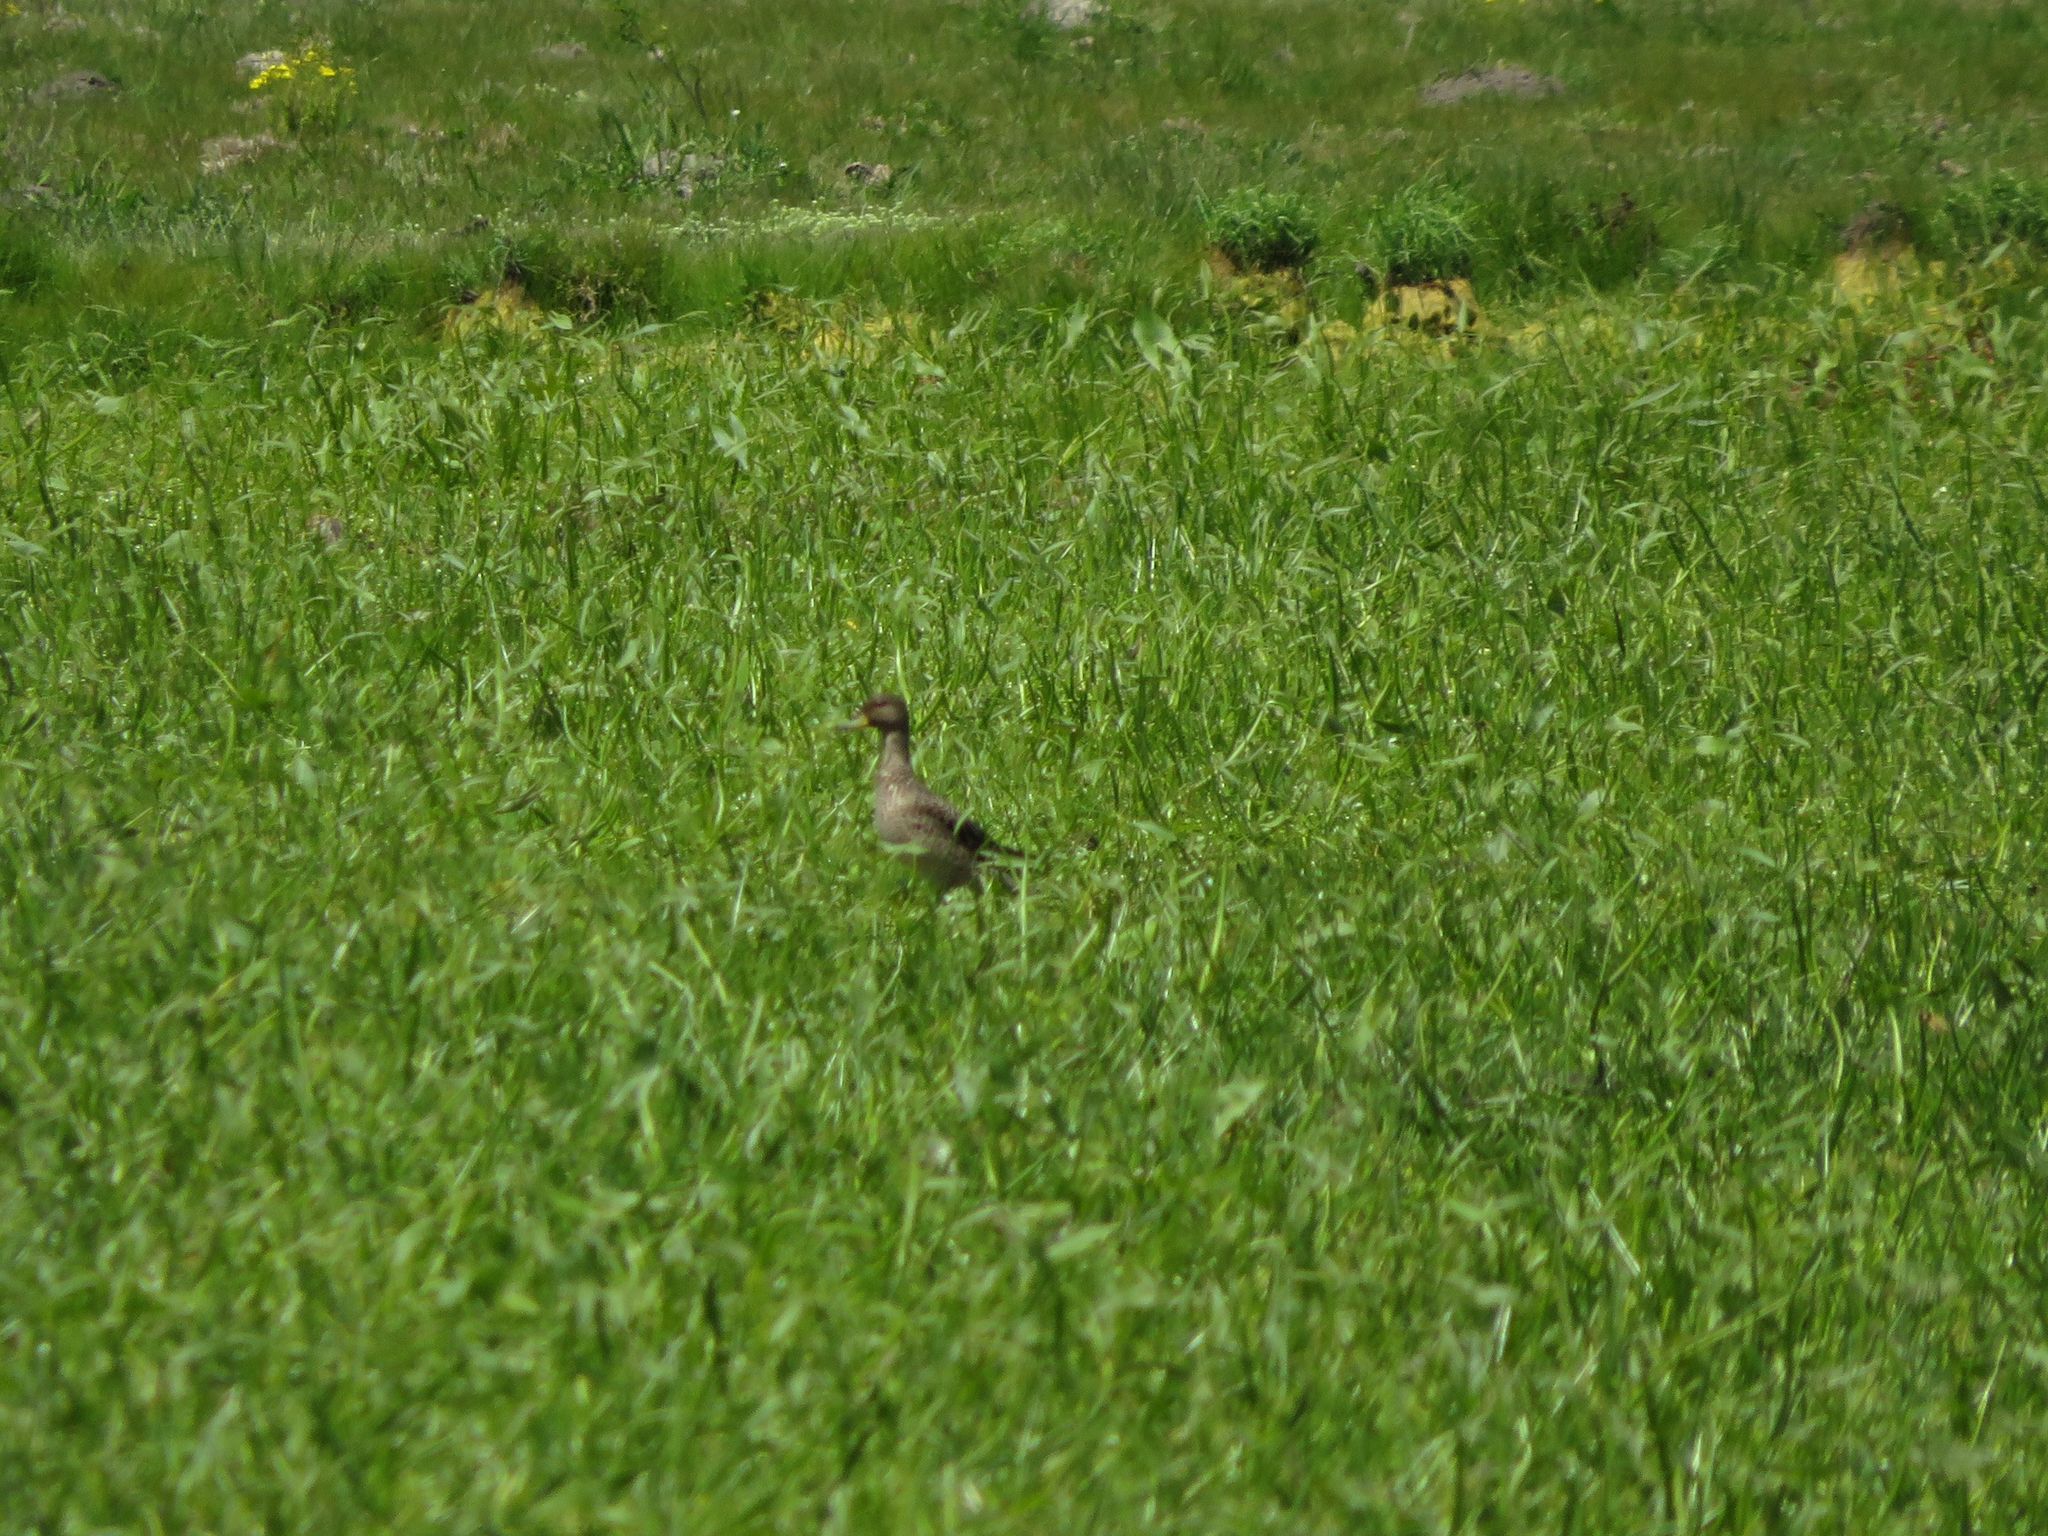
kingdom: Animalia
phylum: Chordata
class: Aves
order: Anseriformes
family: Anatidae
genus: Anas
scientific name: Anas flavirostris
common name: Yellow-billed teal
